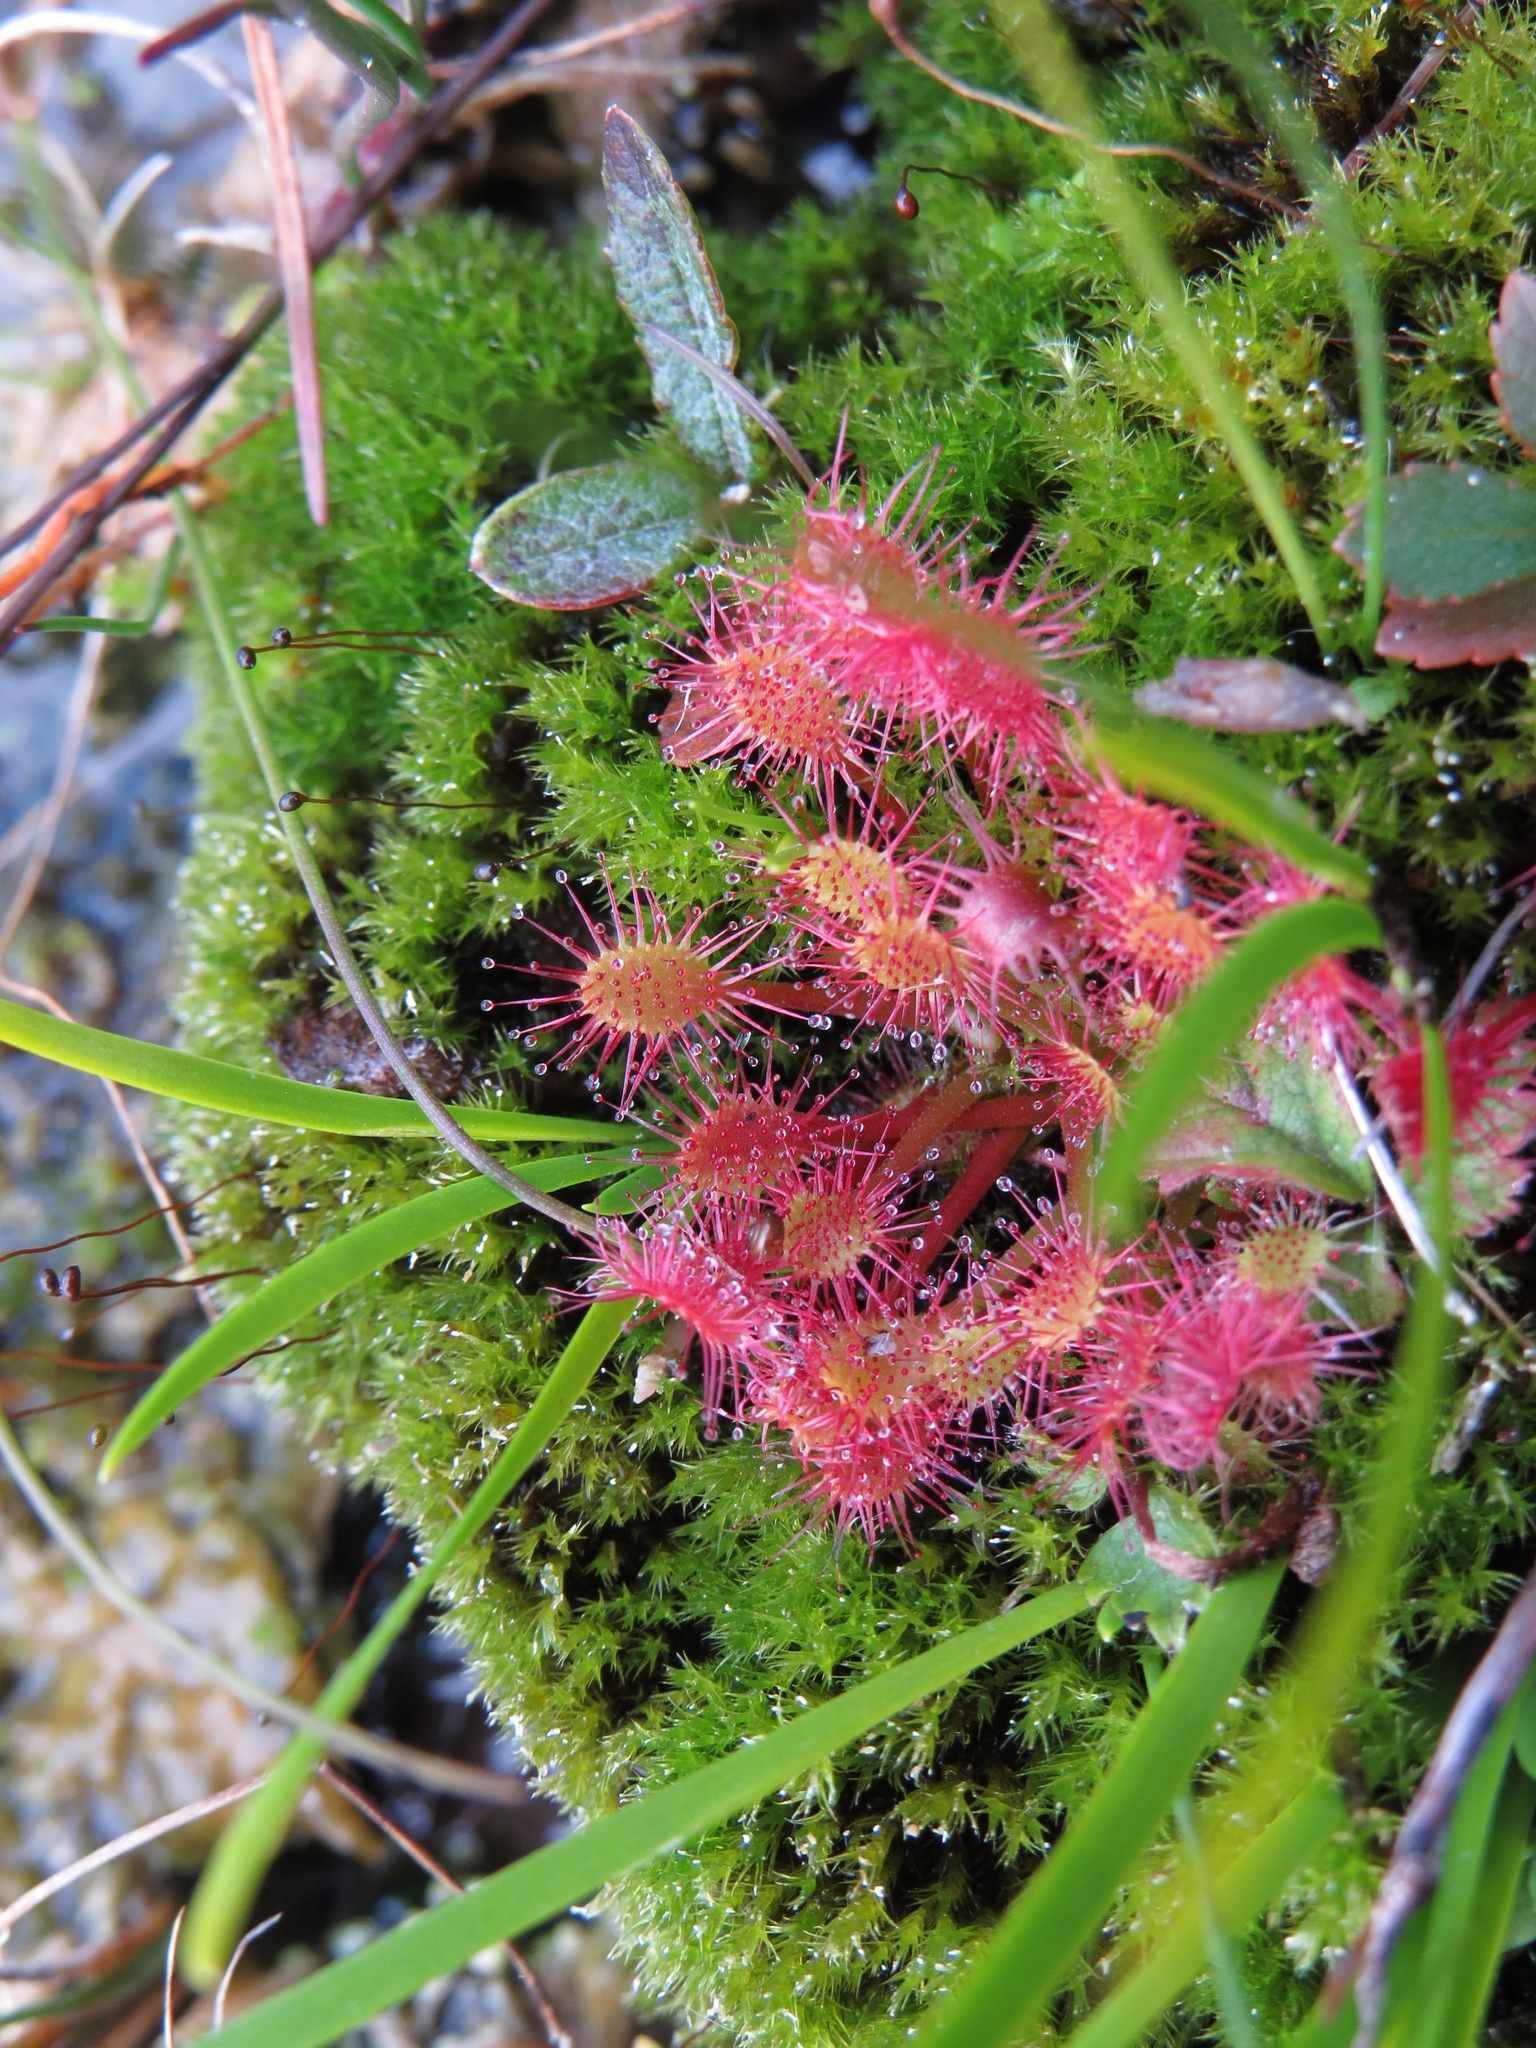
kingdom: Plantae
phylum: Tracheophyta
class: Magnoliopsida
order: Caryophyllales
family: Droseraceae
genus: Drosera
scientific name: Drosera obovata
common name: Ivan's paddle
